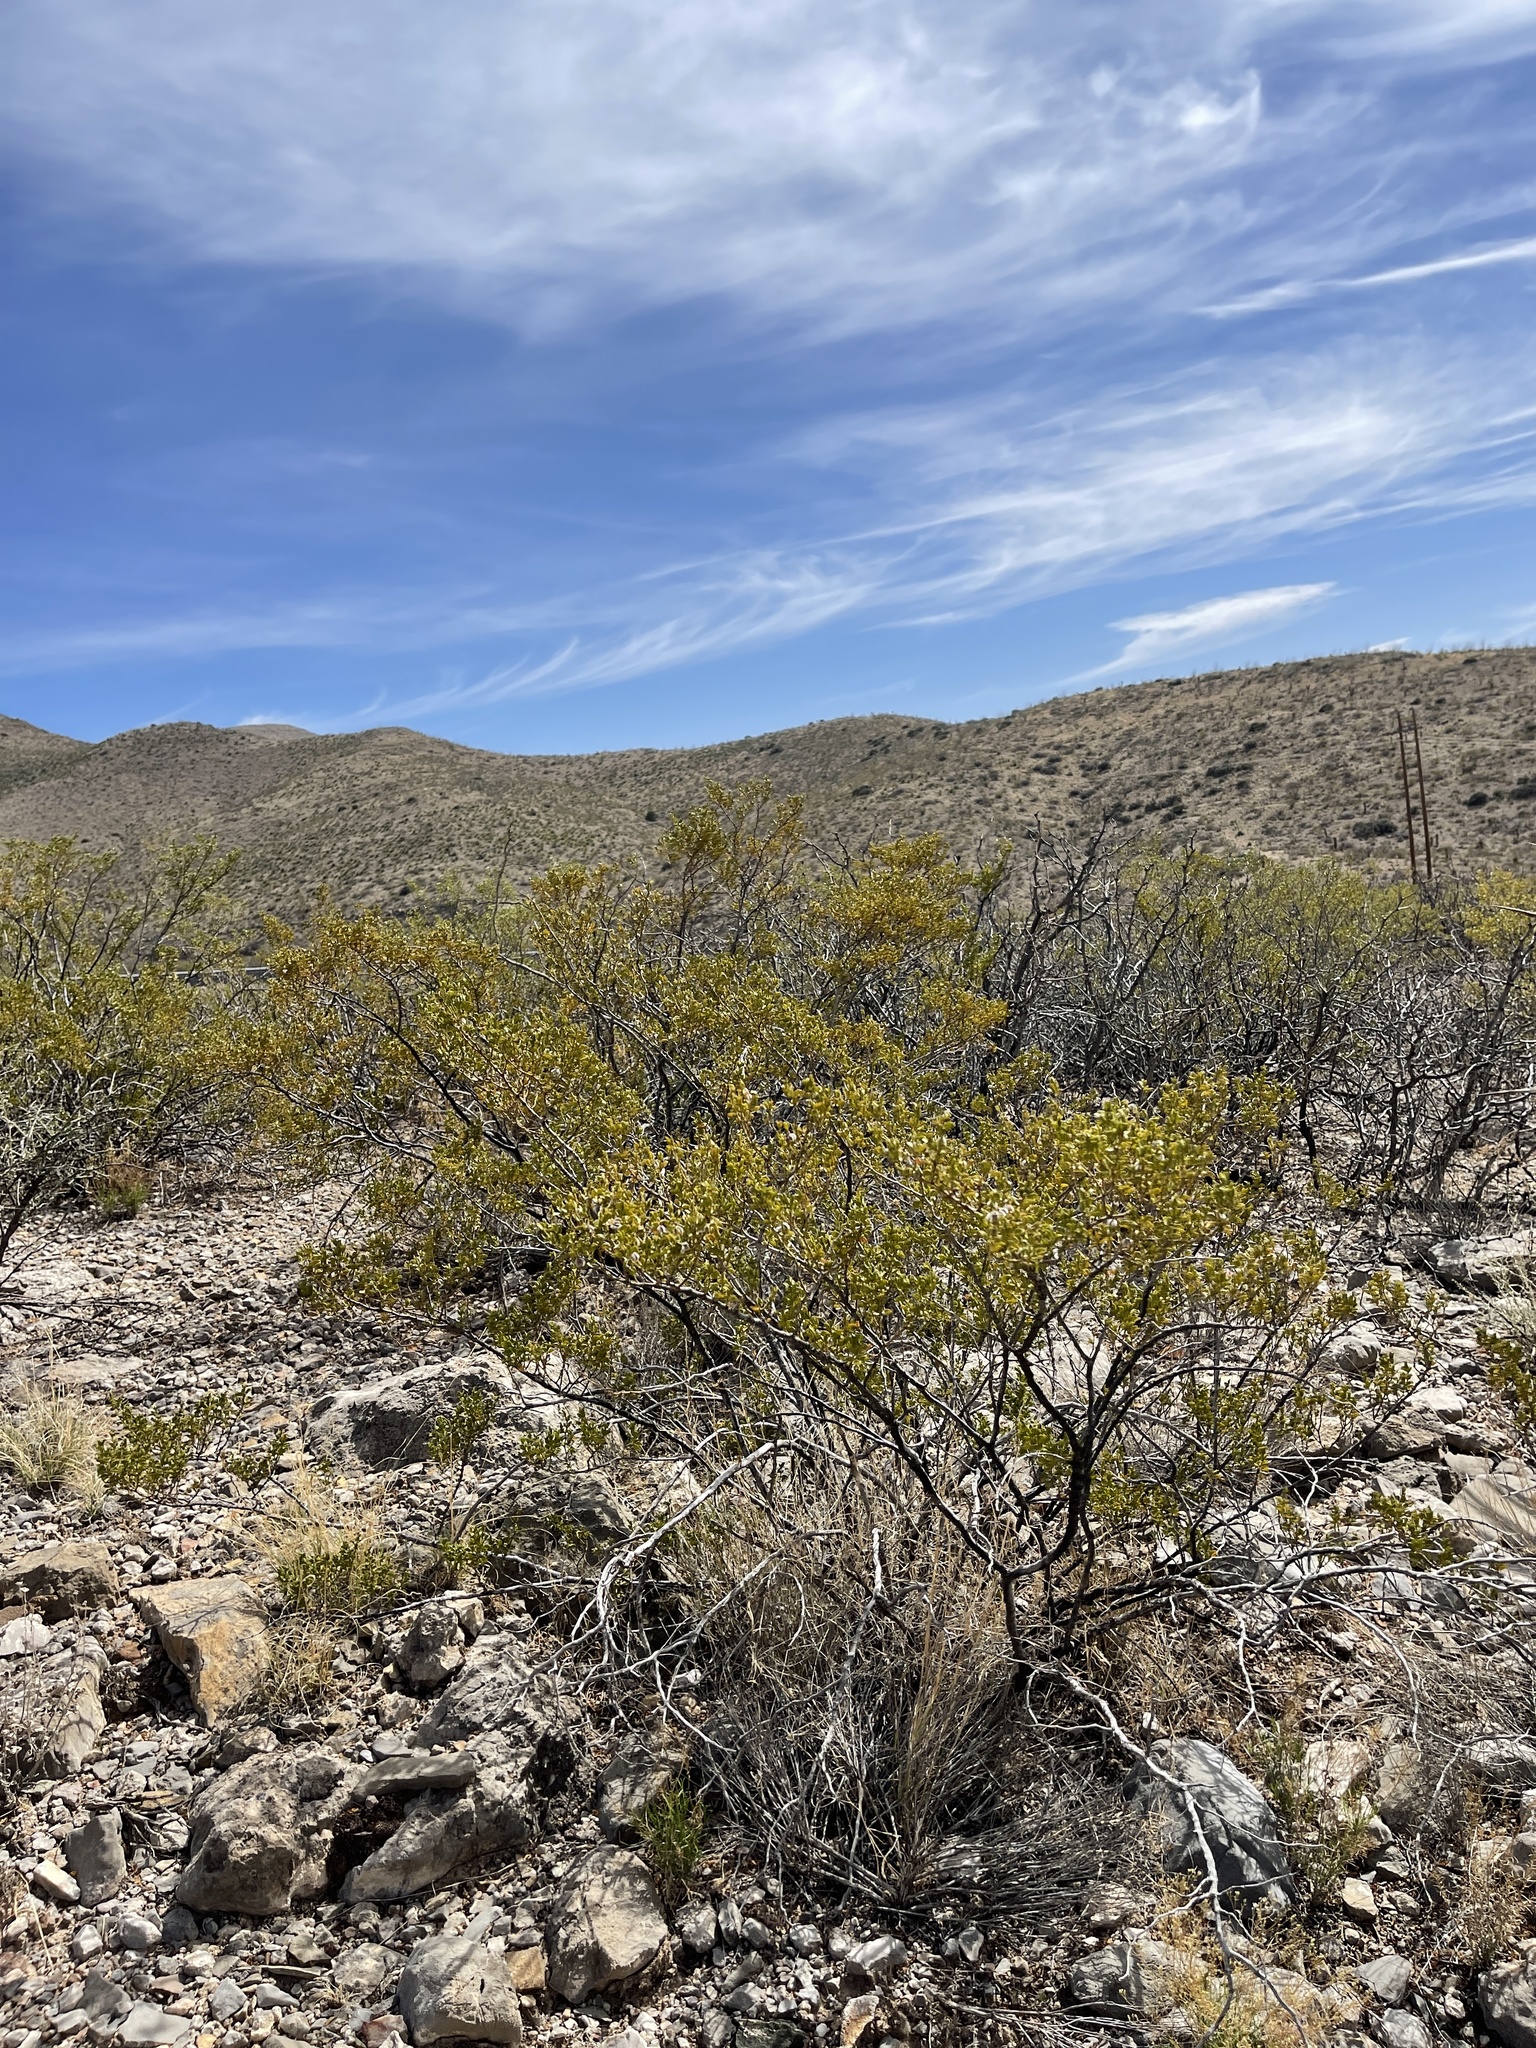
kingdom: Plantae
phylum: Tracheophyta
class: Magnoliopsida
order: Zygophyllales
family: Zygophyllaceae
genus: Larrea
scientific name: Larrea tridentata
